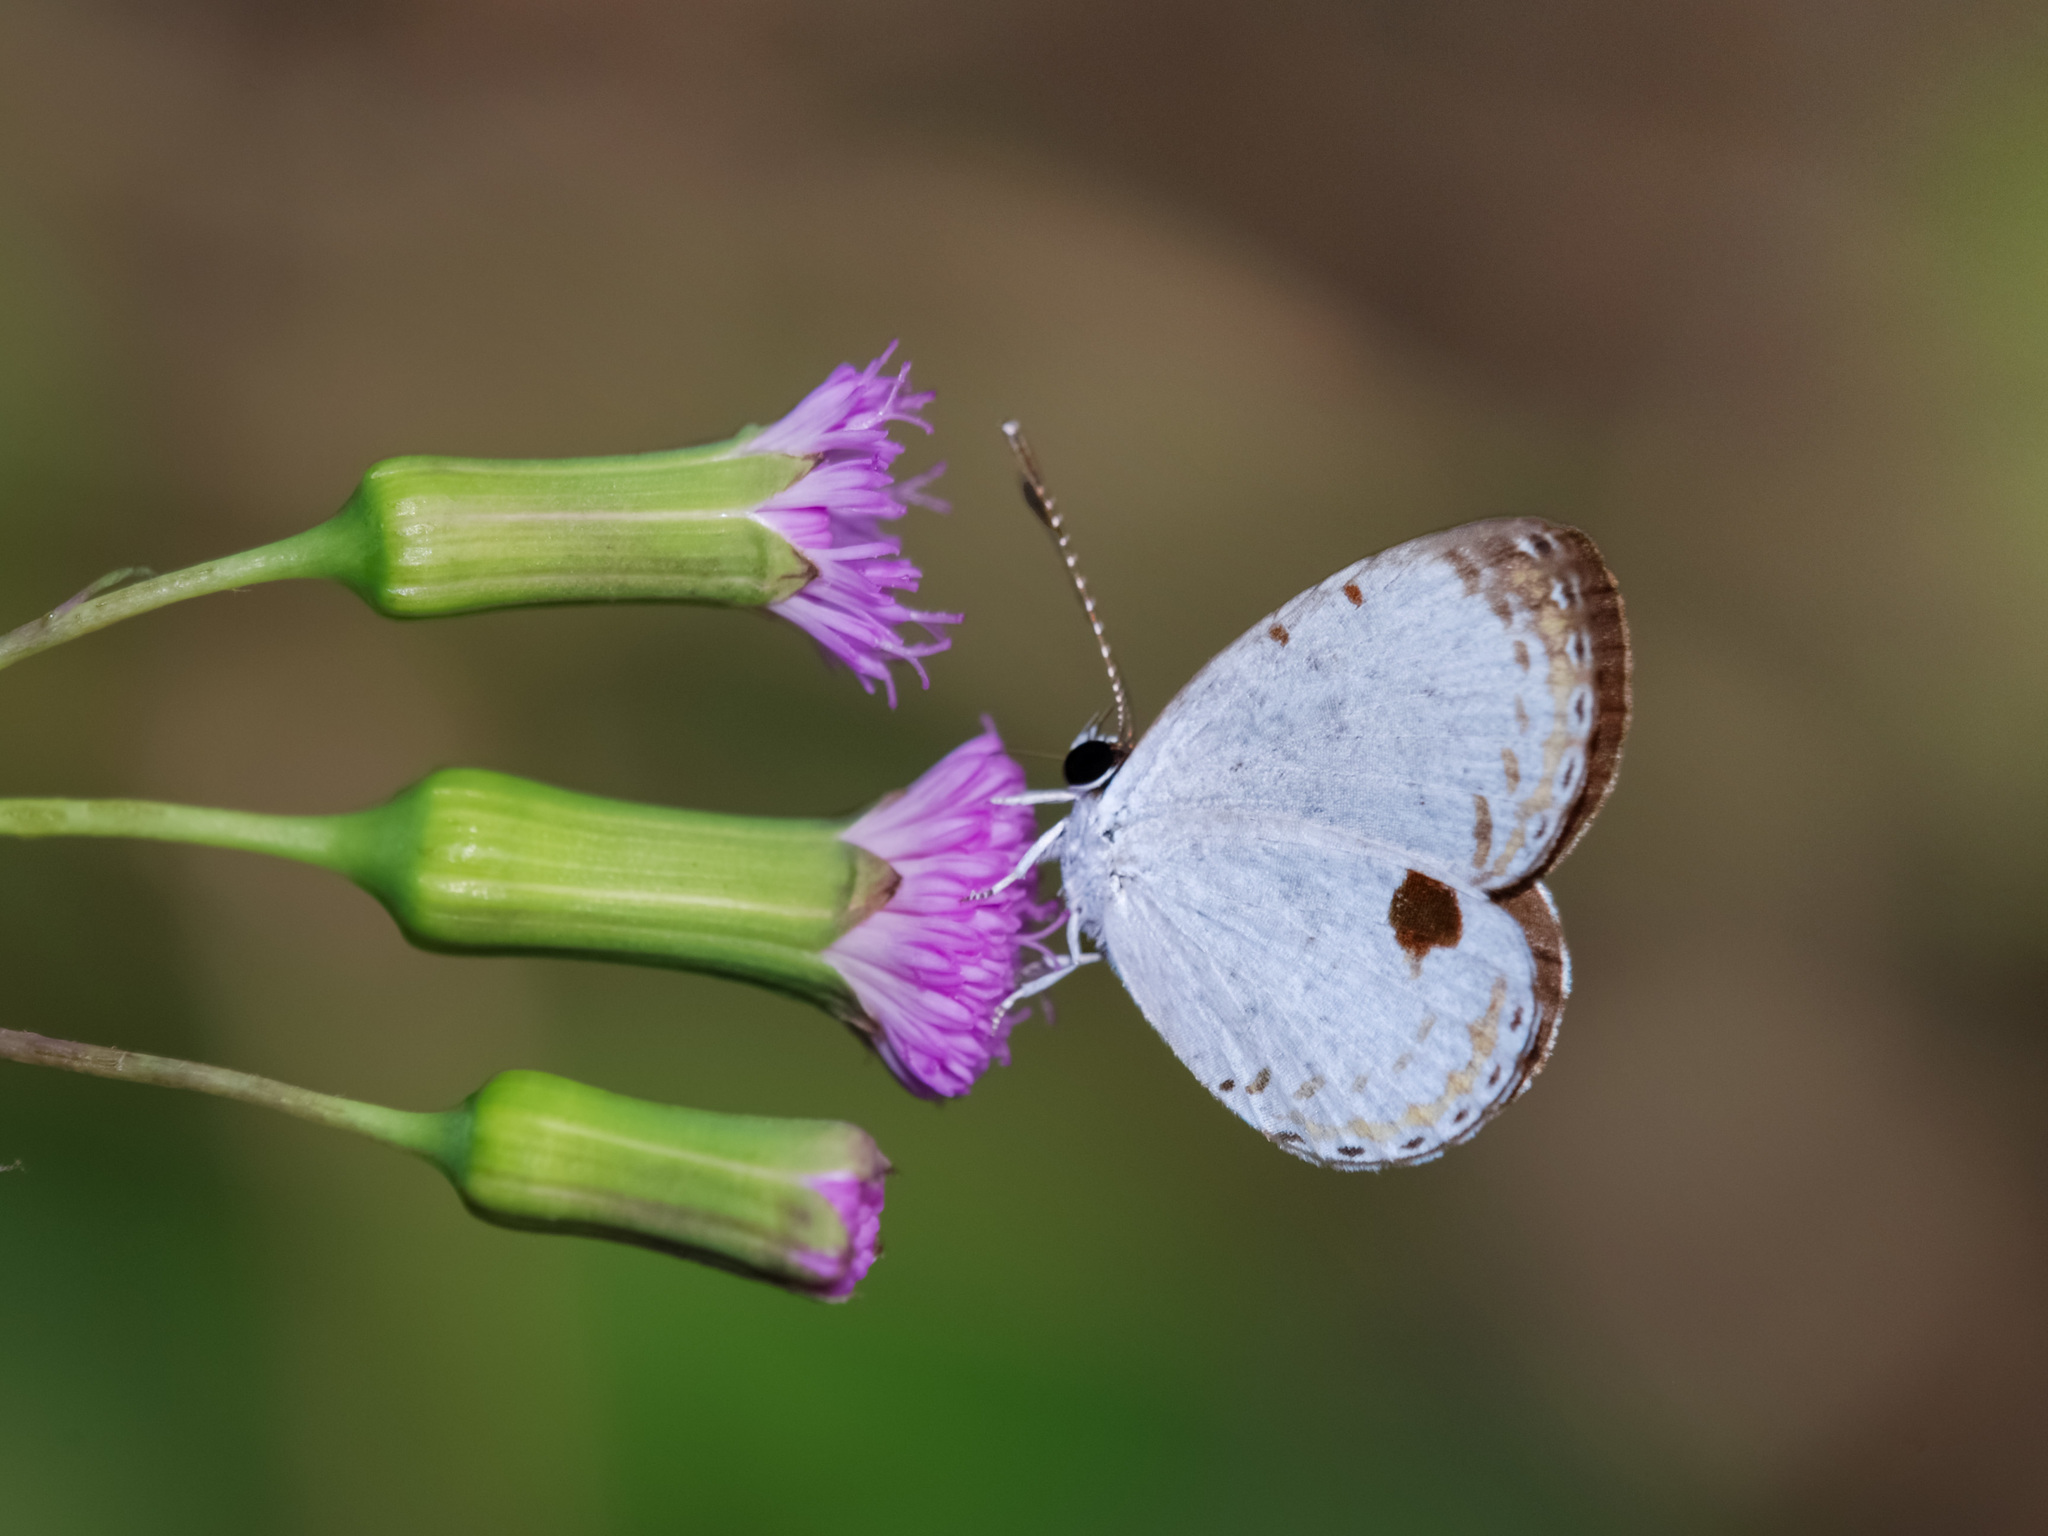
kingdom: Animalia
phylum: Arthropoda
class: Insecta
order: Lepidoptera
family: Lycaenidae
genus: Pithecops
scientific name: Pithecops corvus
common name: Forest quaker
